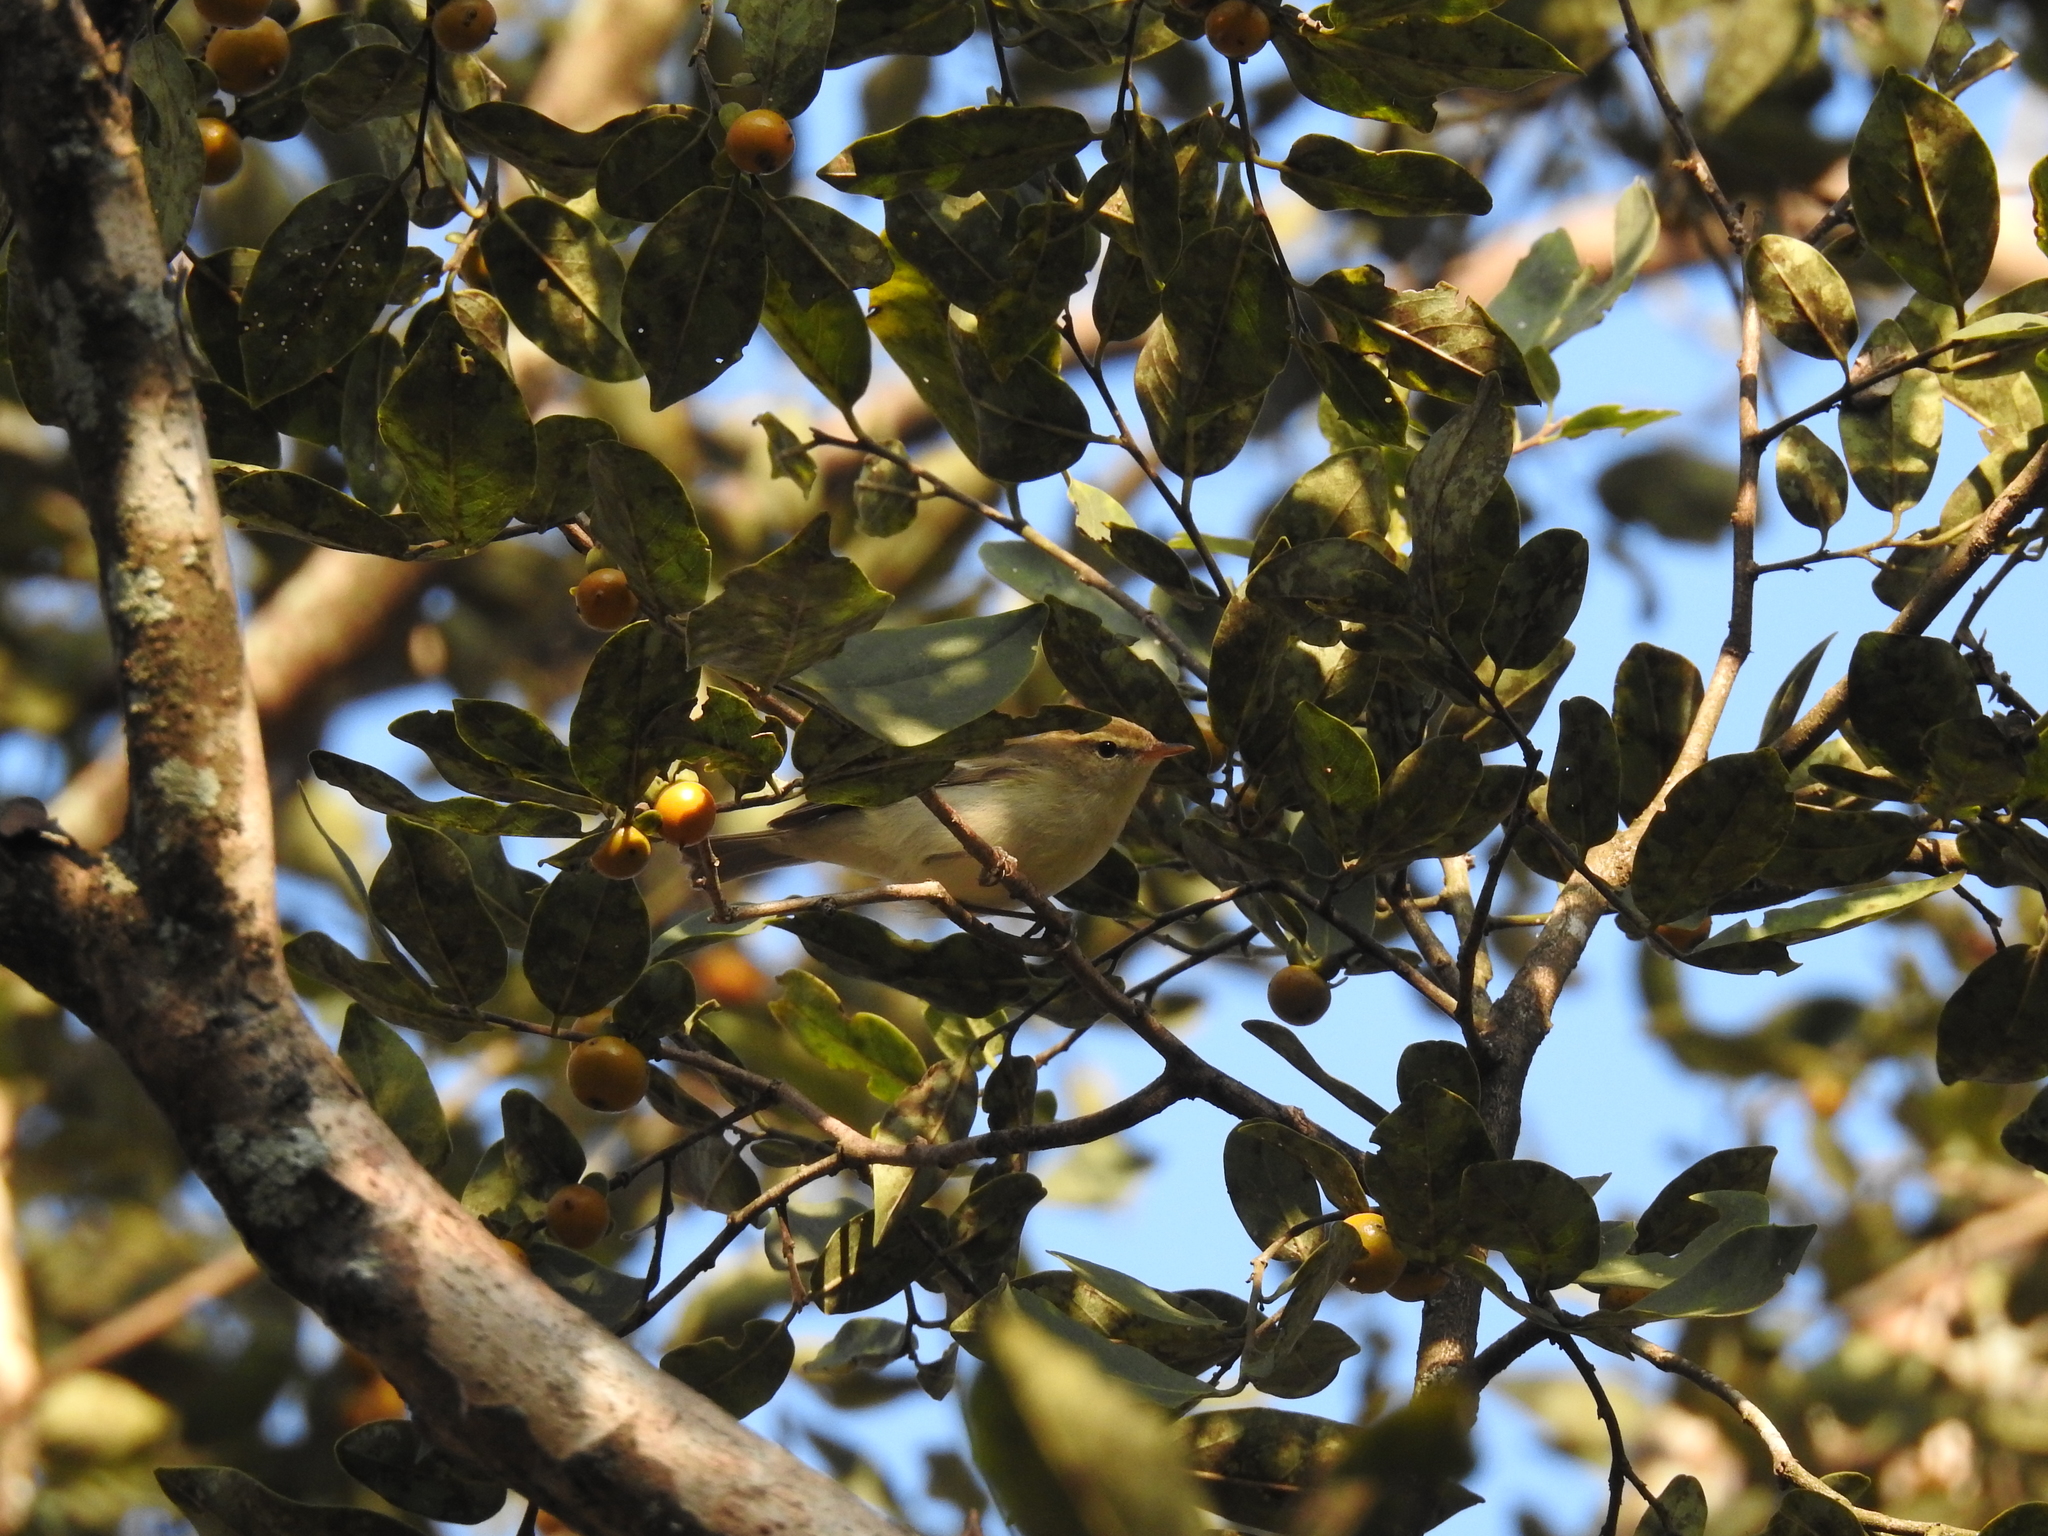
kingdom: Animalia
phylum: Chordata
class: Aves
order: Passeriformes
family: Phylloscopidae
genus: Phylloscopus
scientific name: Phylloscopus trochiloides
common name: Greenish warbler
